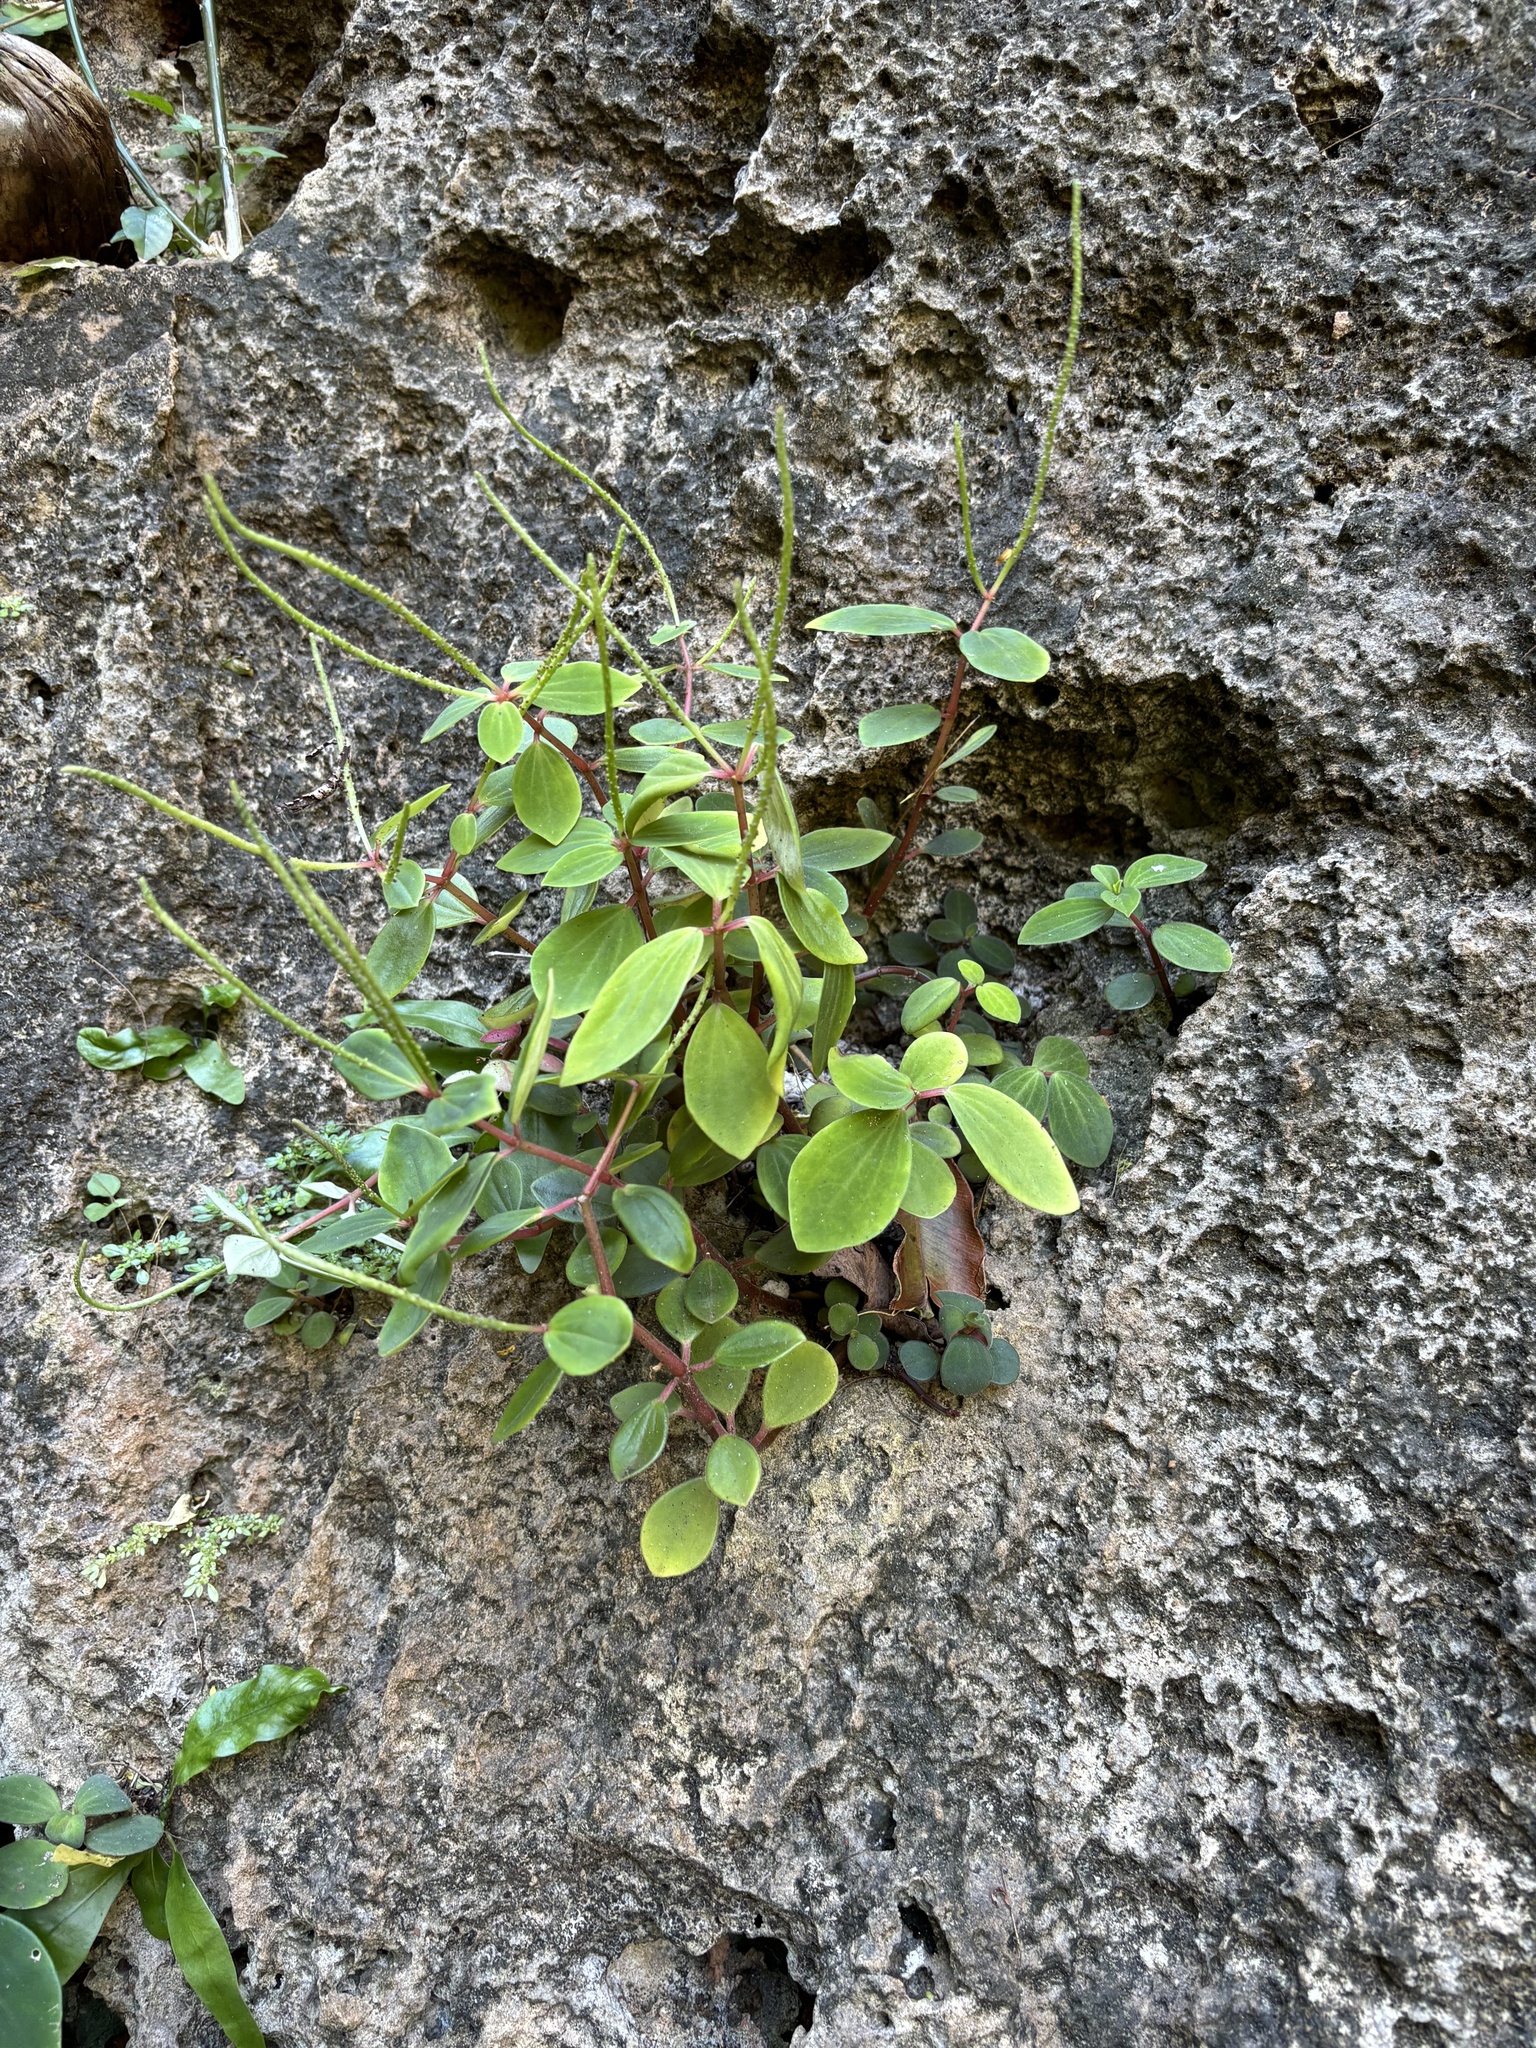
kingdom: Plantae
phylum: Tracheophyta
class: Magnoliopsida
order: Piperales
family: Piperaceae
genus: Peperomia
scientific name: Peperomia leptostachya
